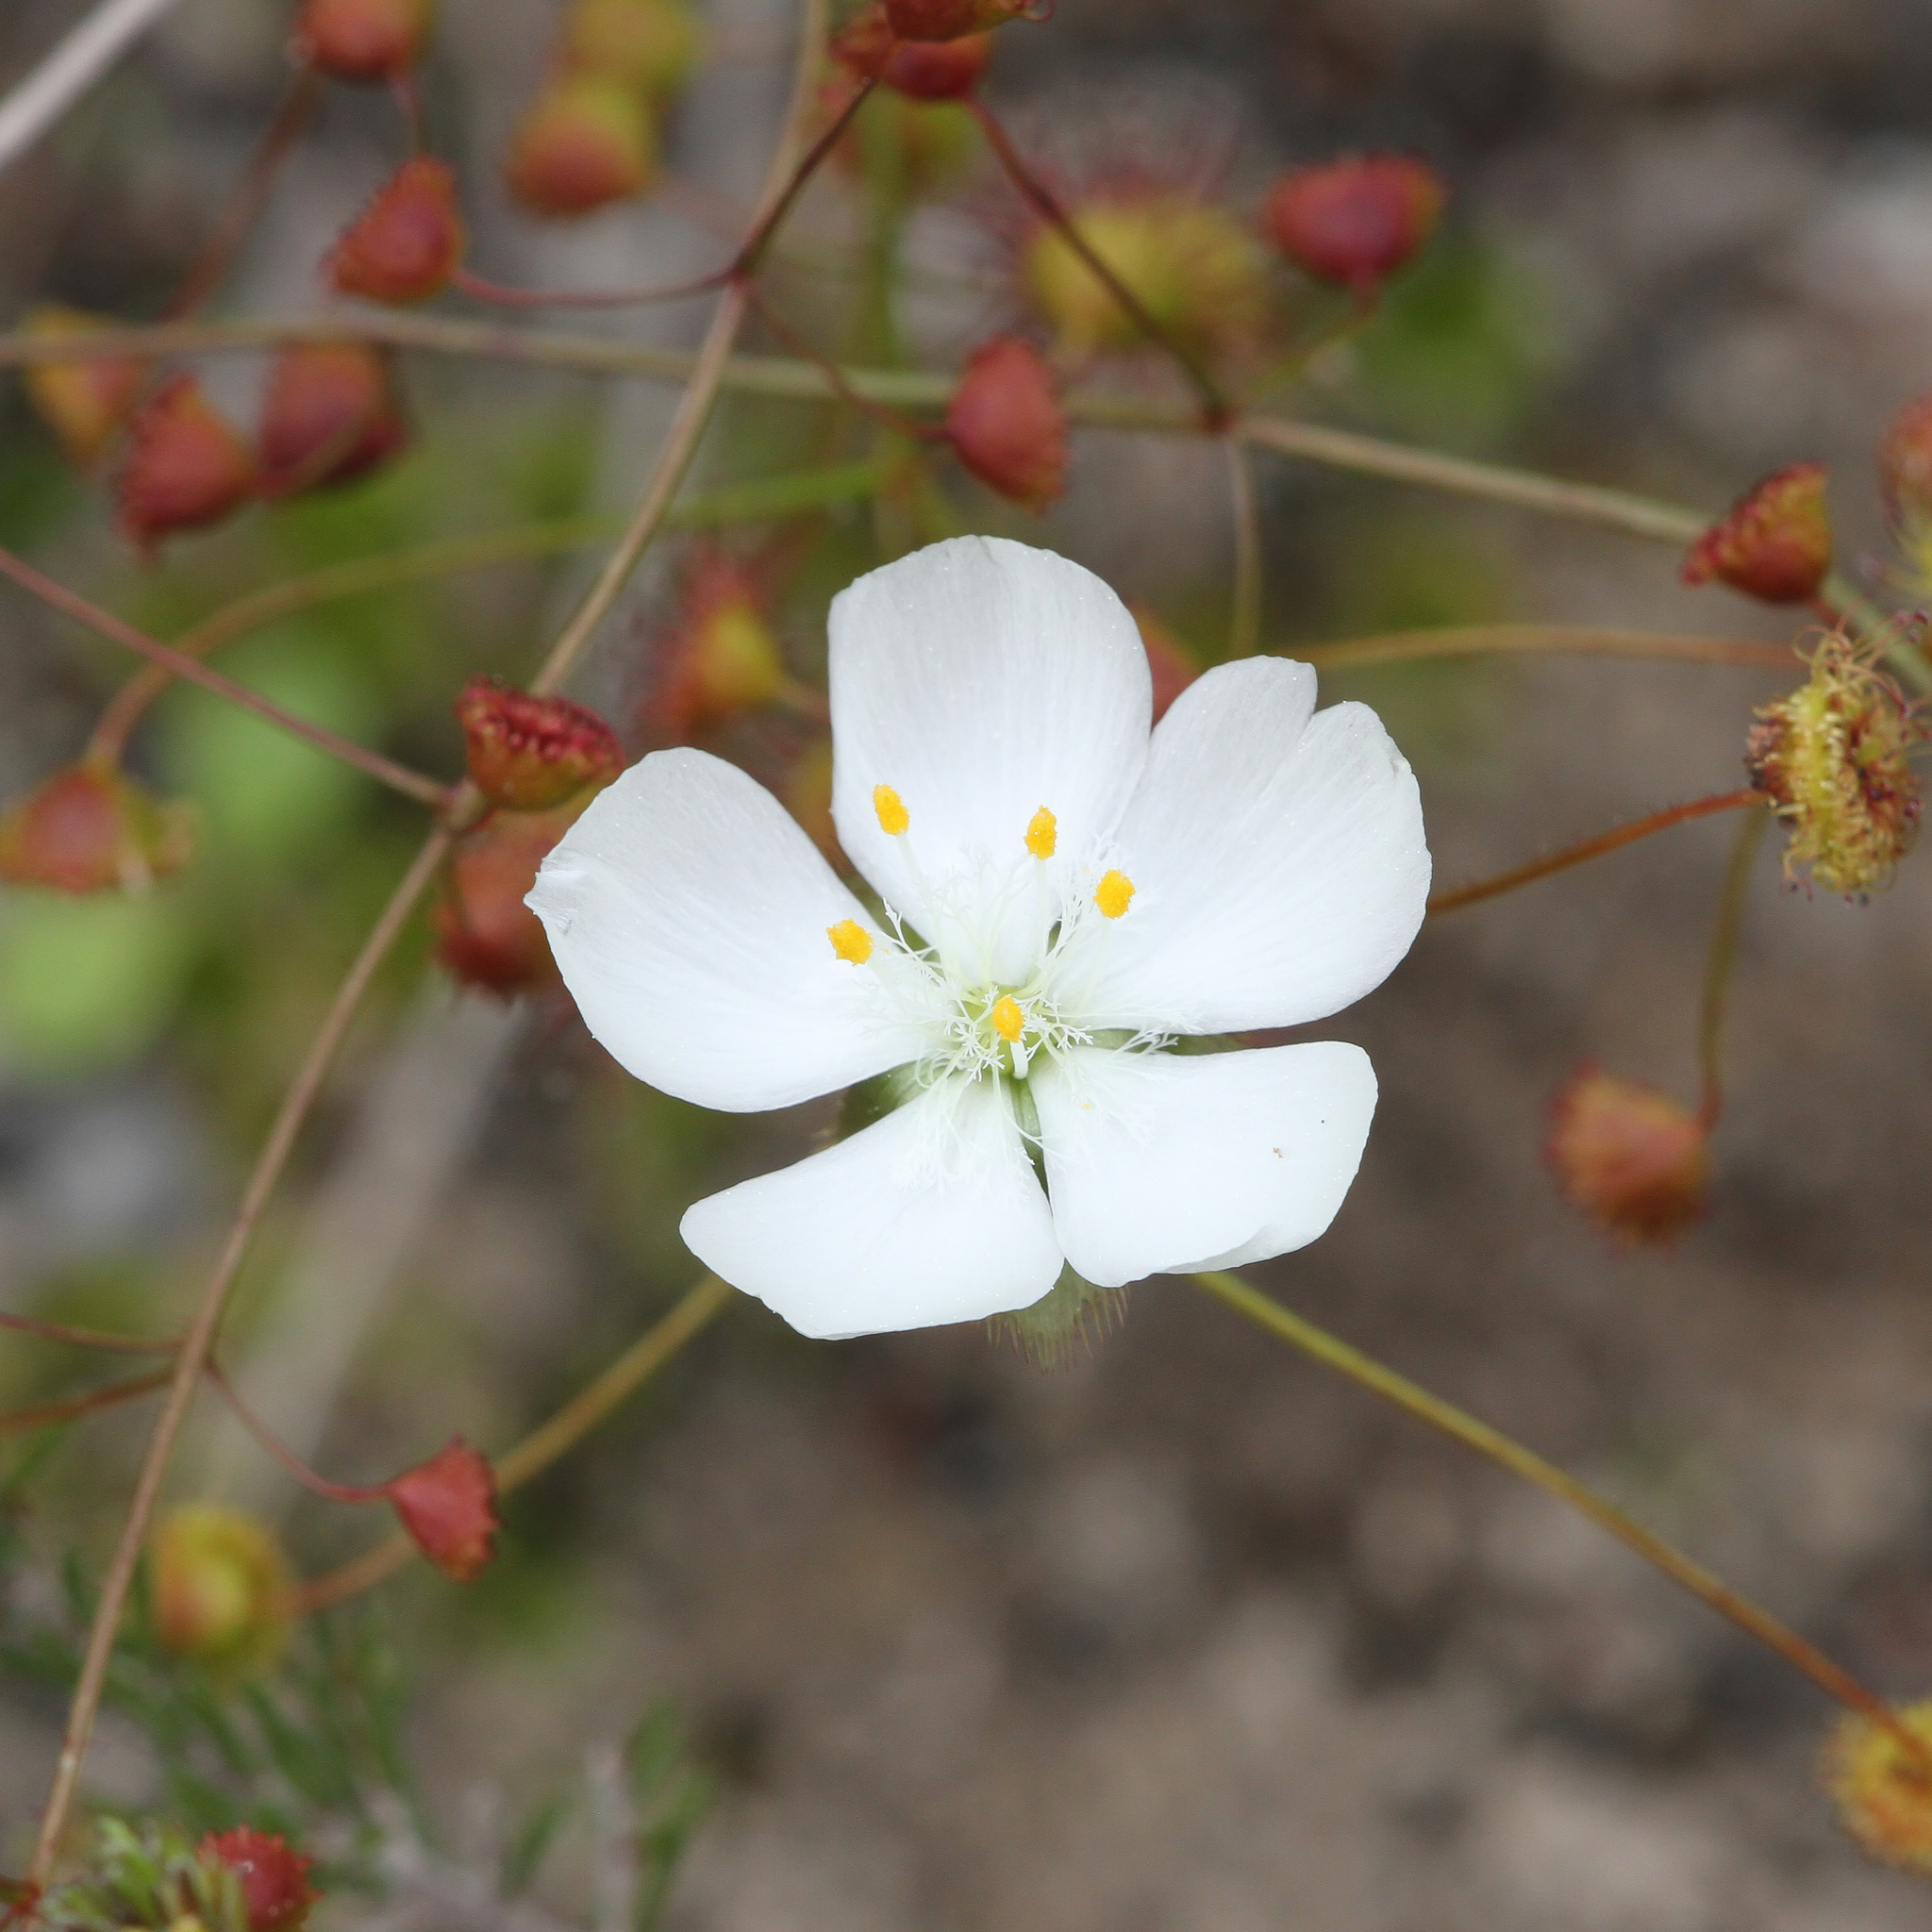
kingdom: Plantae
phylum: Tracheophyta
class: Magnoliopsida
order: Caryophyllales
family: Droseraceae
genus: Drosera
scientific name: Drosera planchonii
